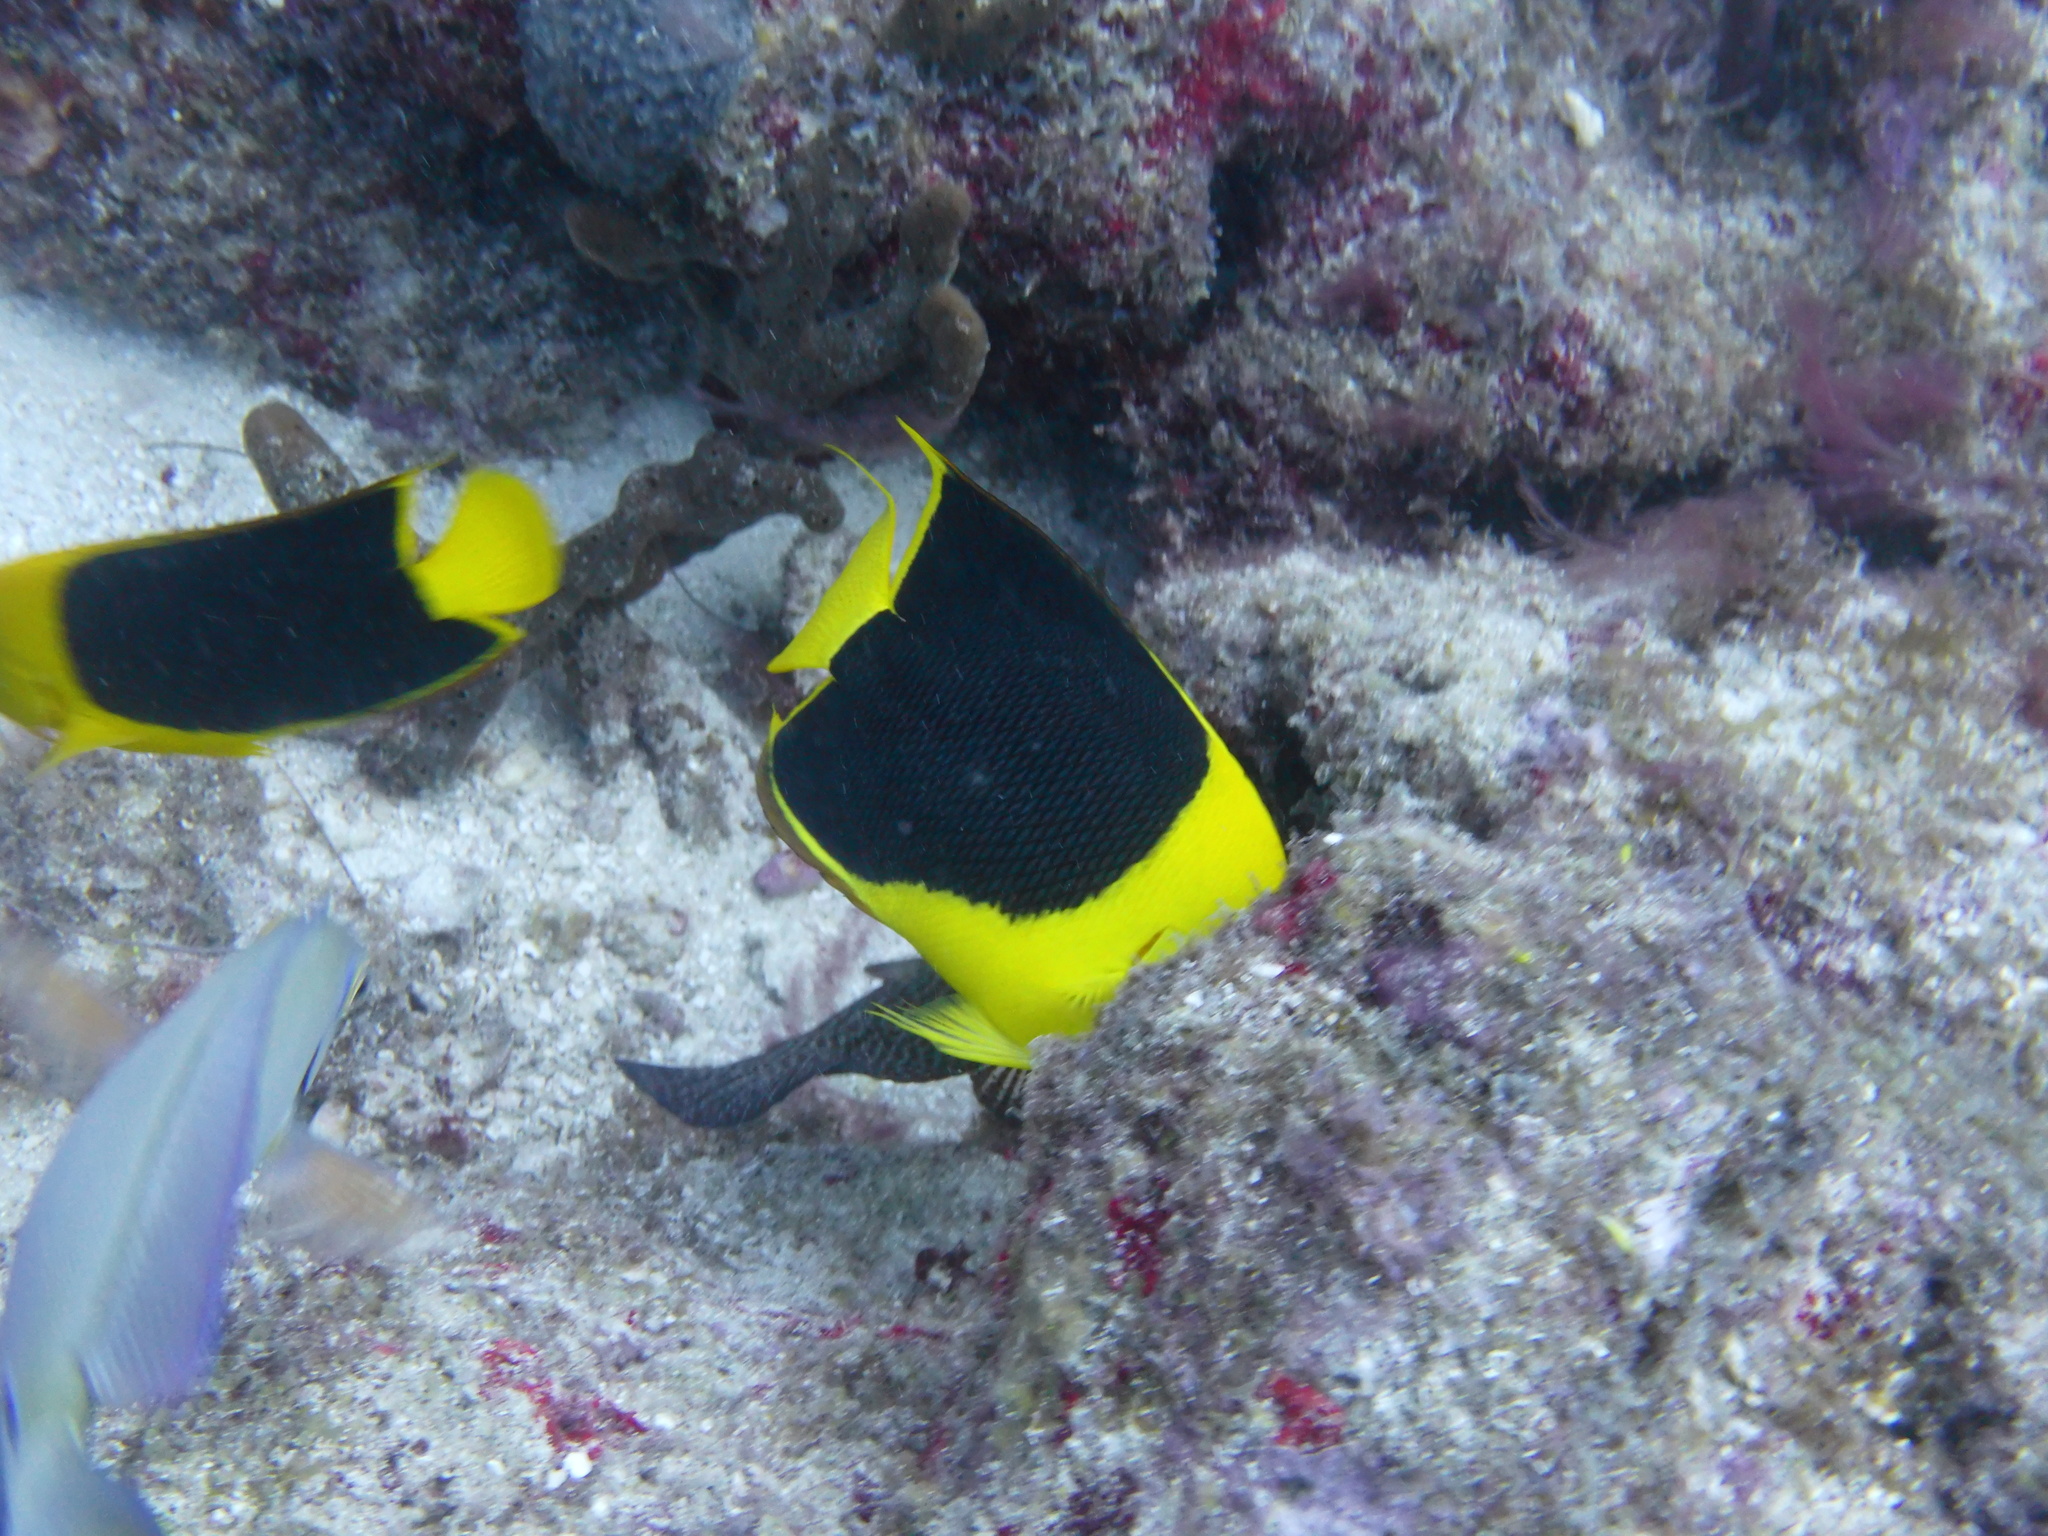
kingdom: Animalia
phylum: Chordata
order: Perciformes
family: Pomacanthidae
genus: Holacanthus
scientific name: Holacanthus tricolor
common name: Rock beauty
